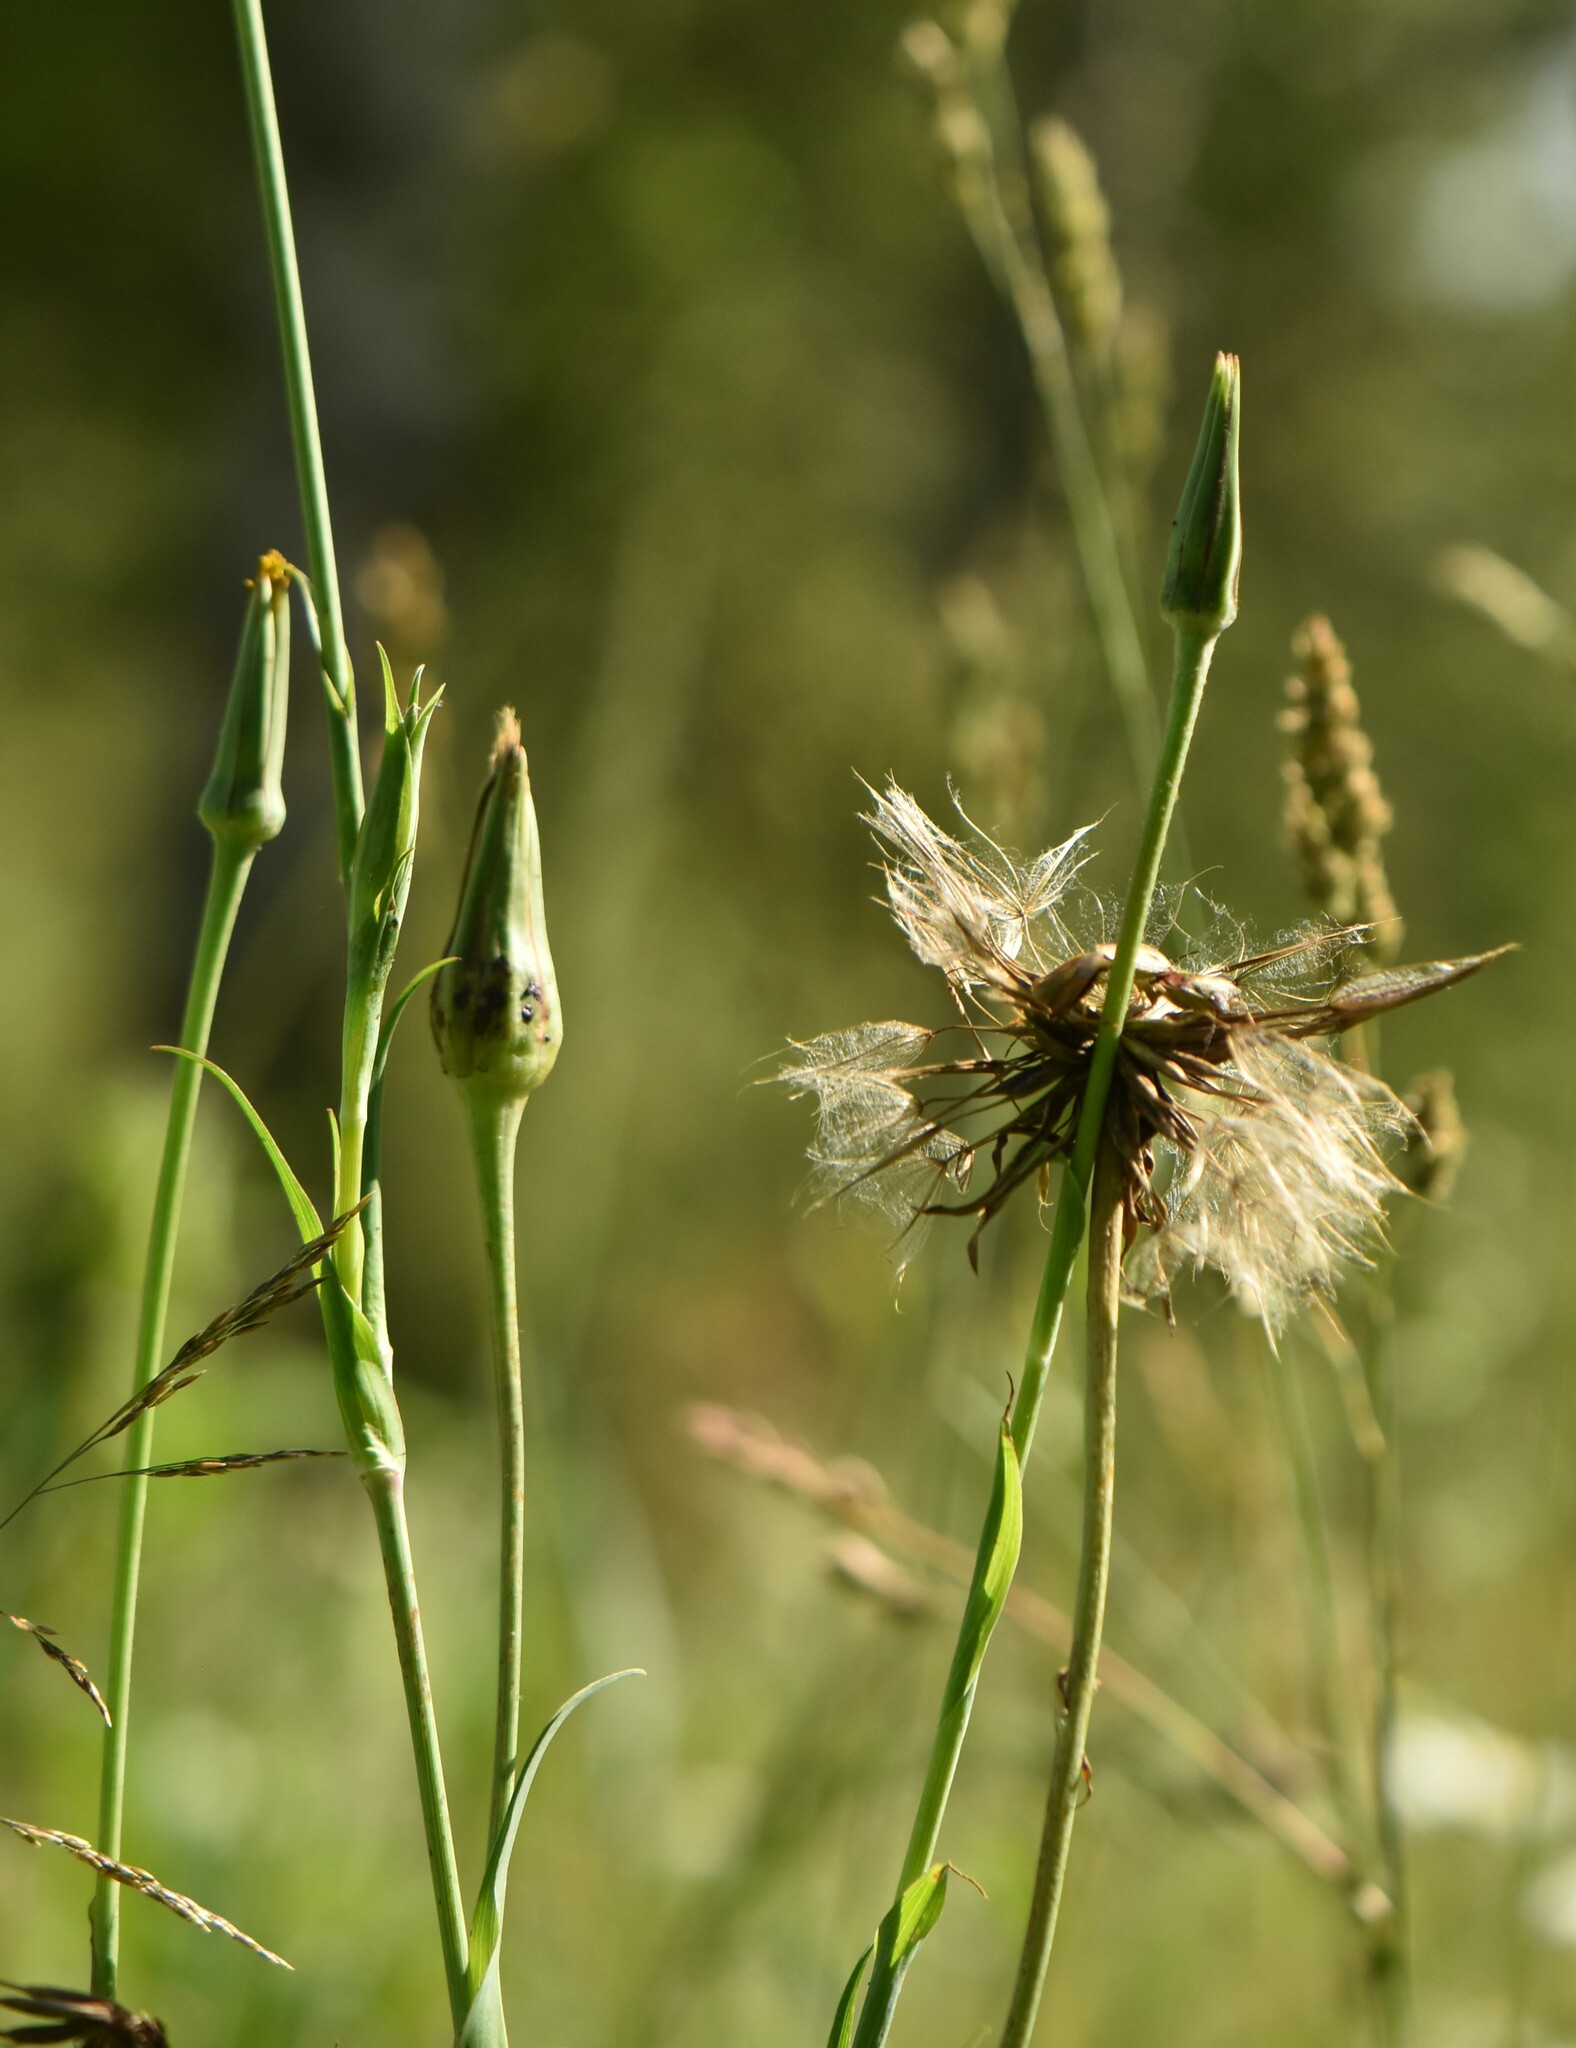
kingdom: Plantae
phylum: Tracheophyta
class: Magnoliopsida
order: Asterales
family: Asteraceae
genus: Tragopogon
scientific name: Tragopogon pratensis
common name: Goat's-beard
